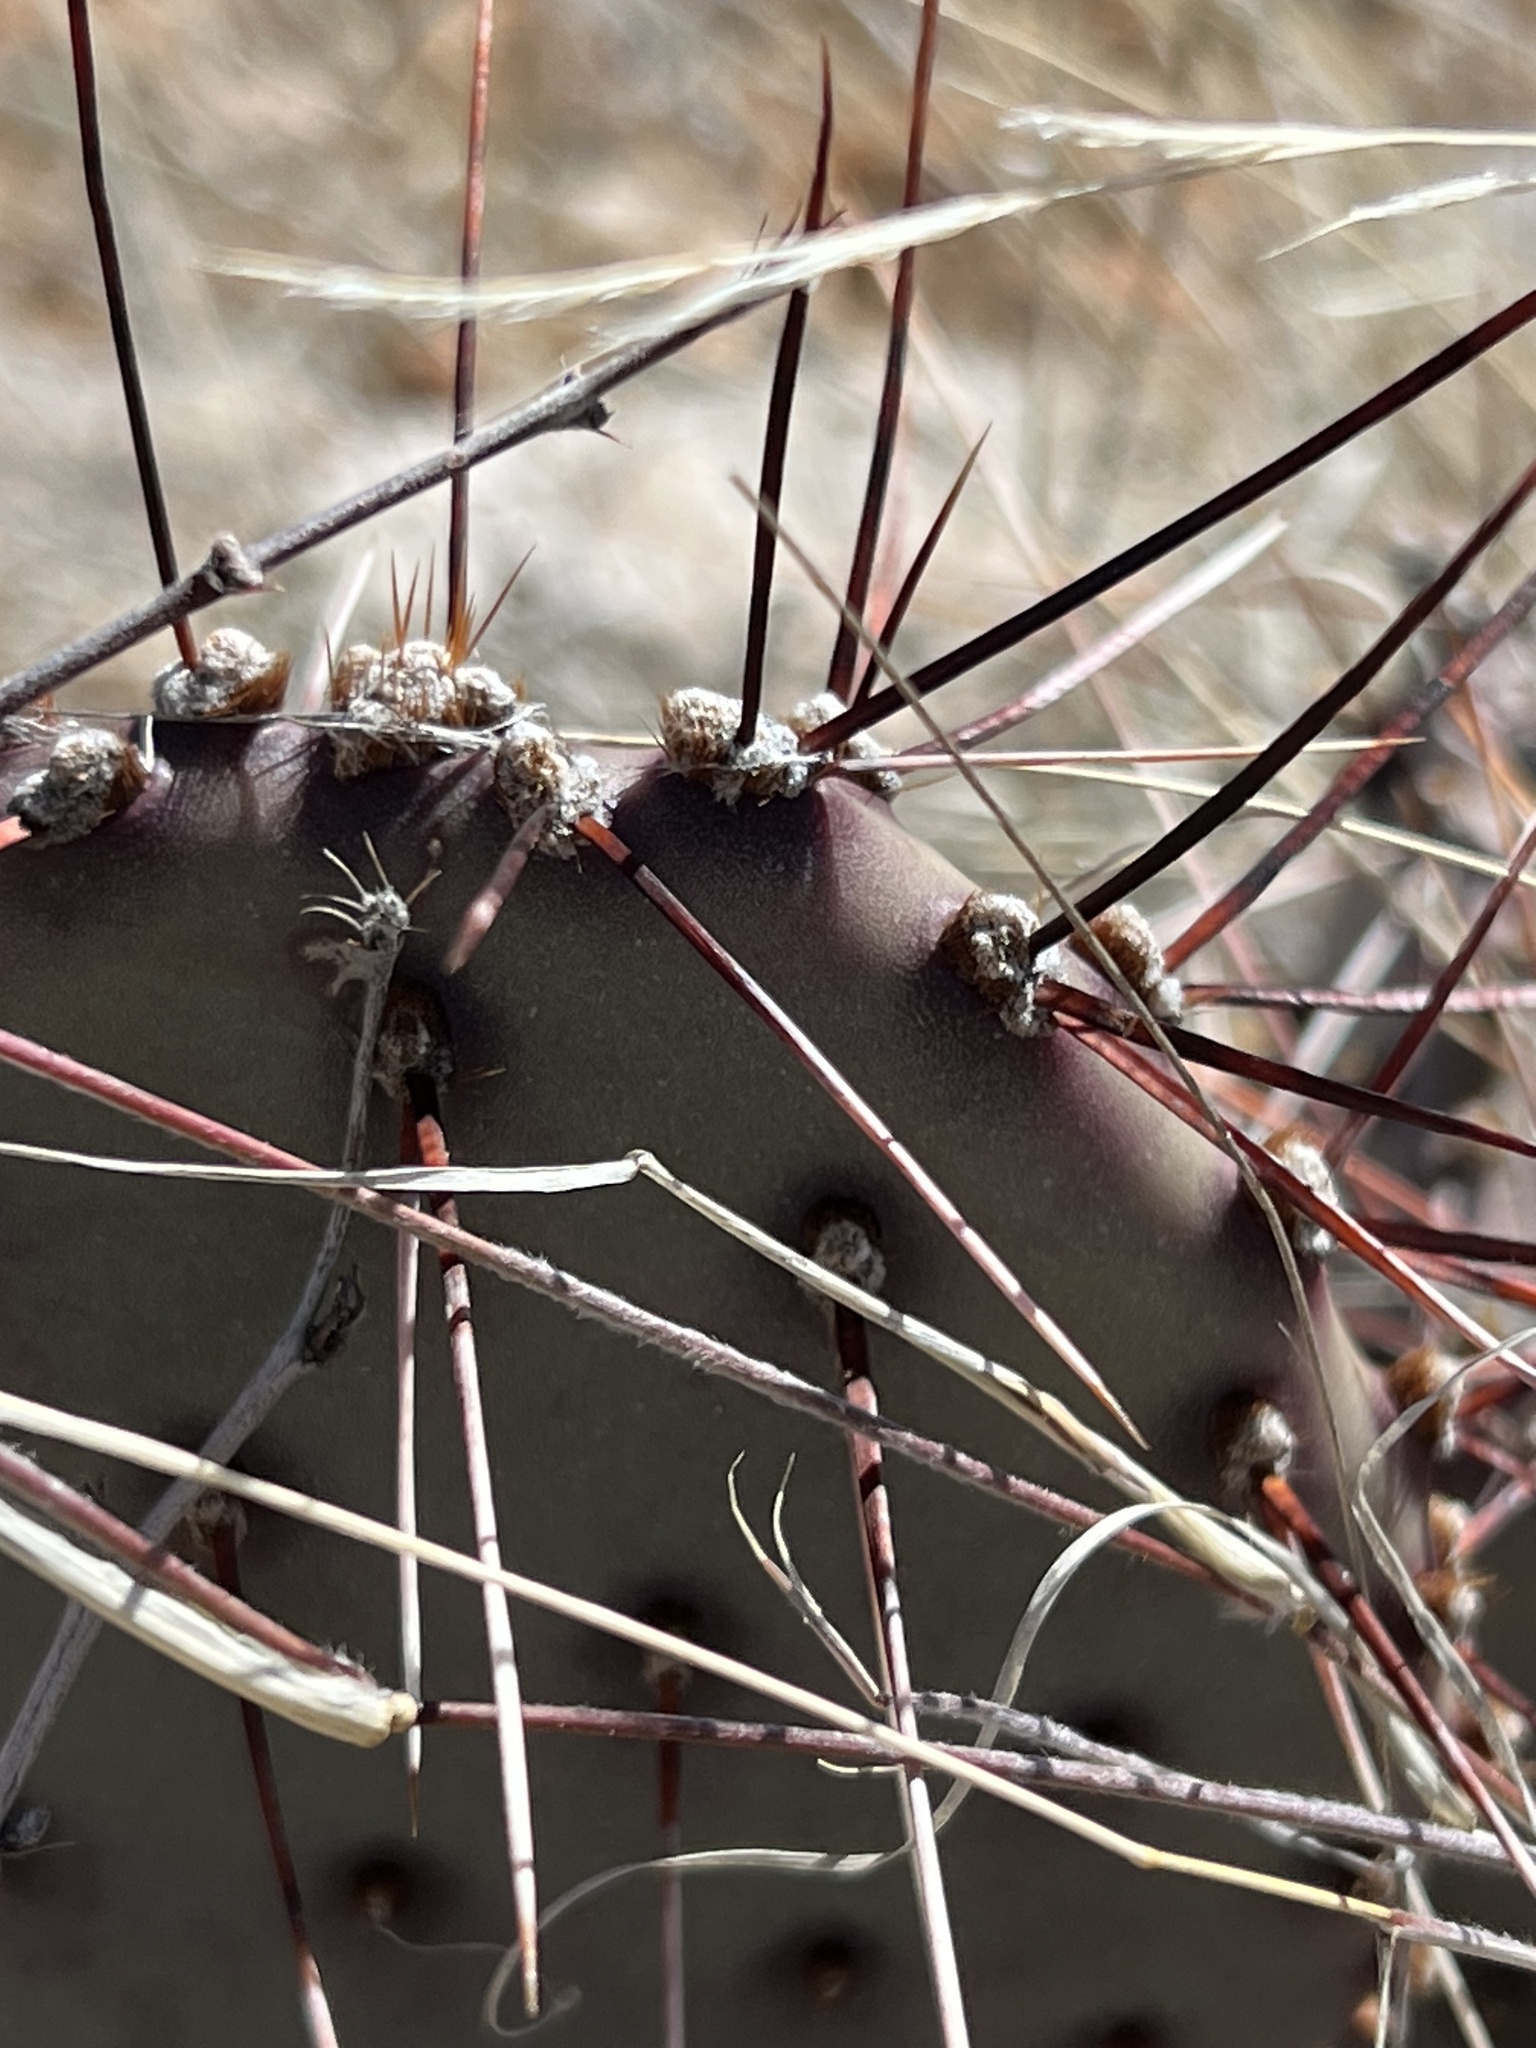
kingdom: Plantae
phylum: Tracheophyta
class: Magnoliopsida
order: Caryophyllales
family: Cactaceae
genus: Opuntia
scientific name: Opuntia macrocentra
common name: Purple prickly-pear
